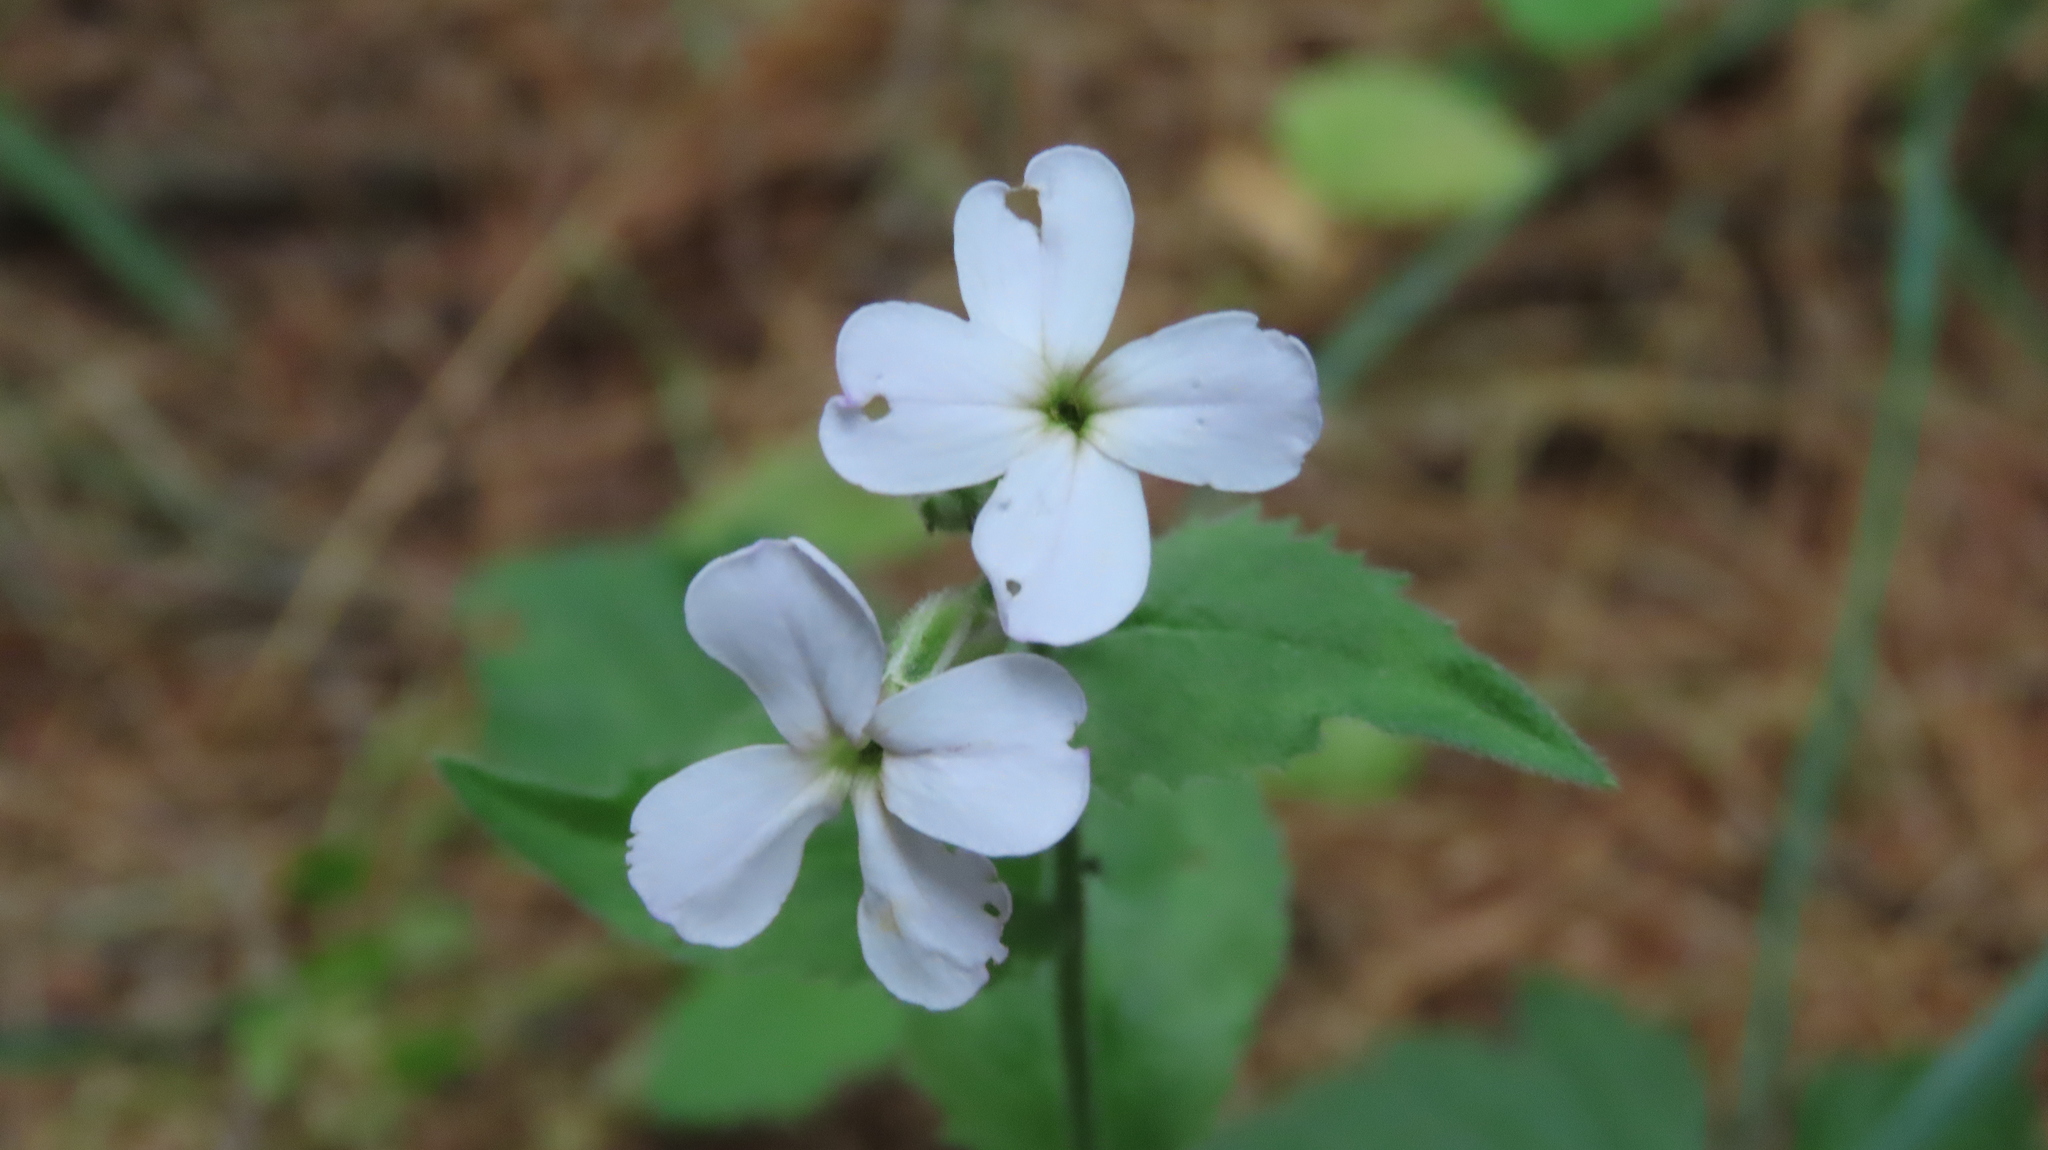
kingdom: Plantae
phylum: Tracheophyta
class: Magnoliopsida
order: Brassicales
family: Brassicaceae
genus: Hesperis
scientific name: Hesperis matronalis
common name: Dame's-violet
